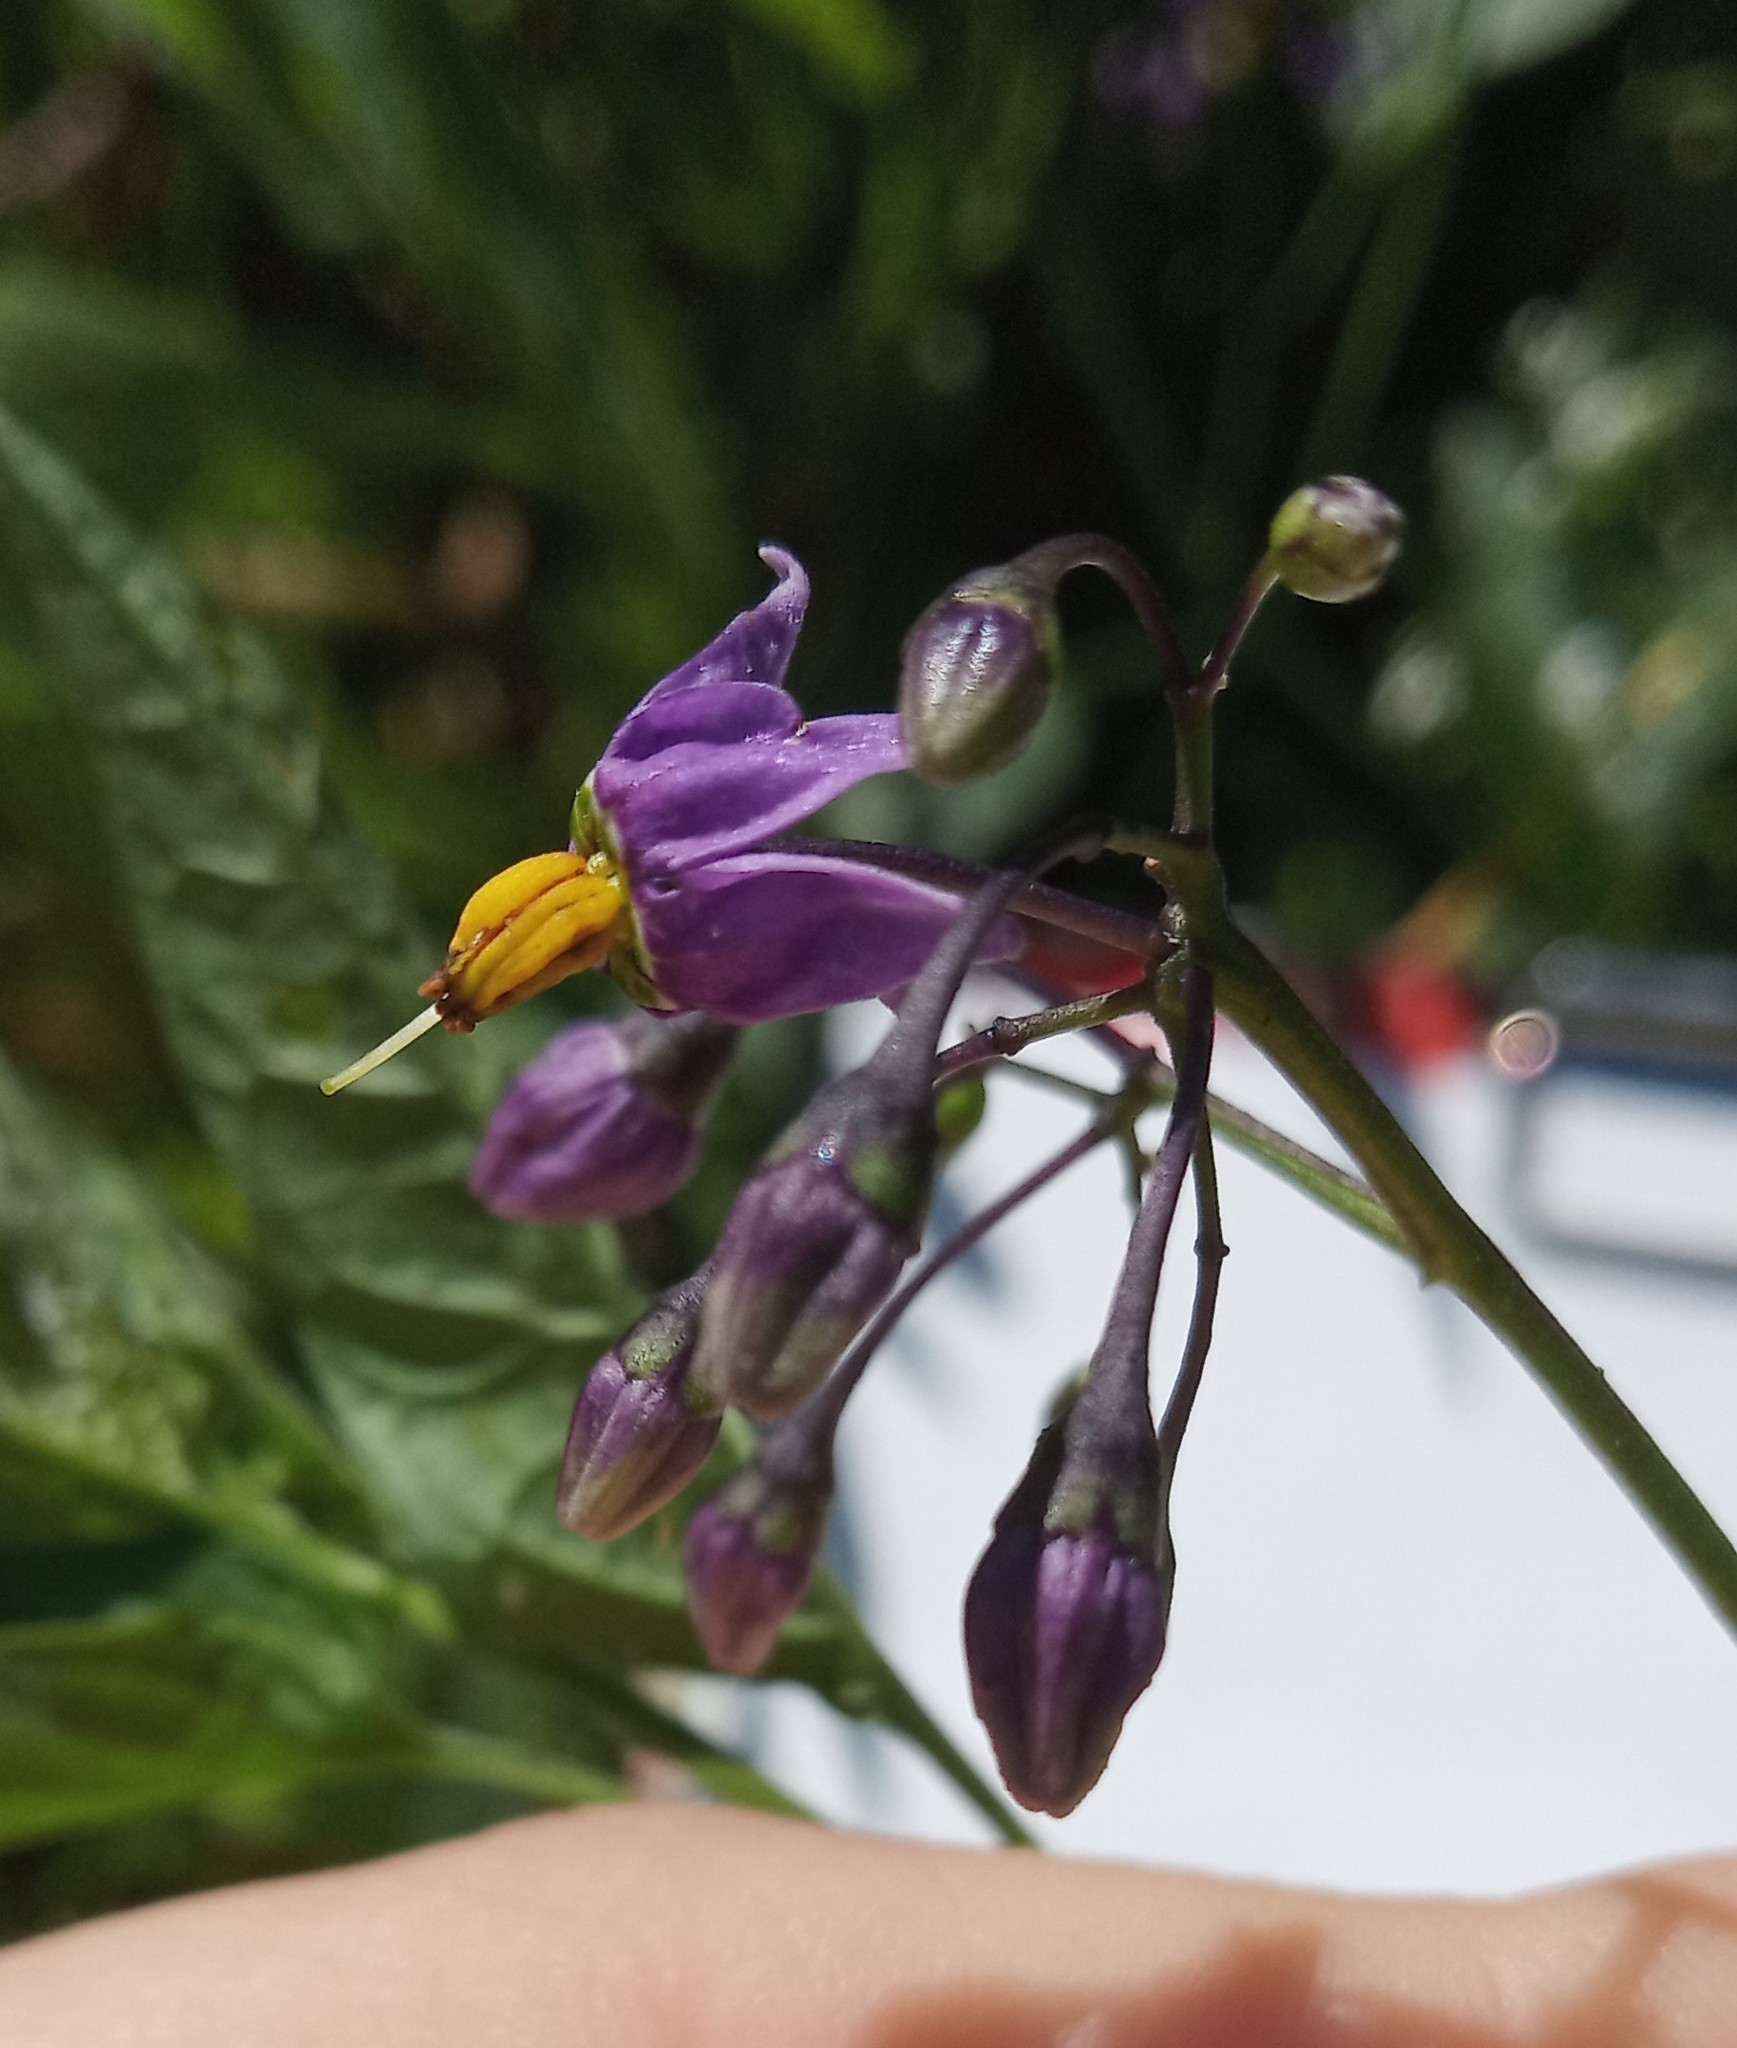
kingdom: Plantae
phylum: Tracheophyta
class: Magnoliopsida
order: Solanales
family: Solanaceae
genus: Solanum
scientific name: Solanum dulcamara
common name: Climbing nightshade
